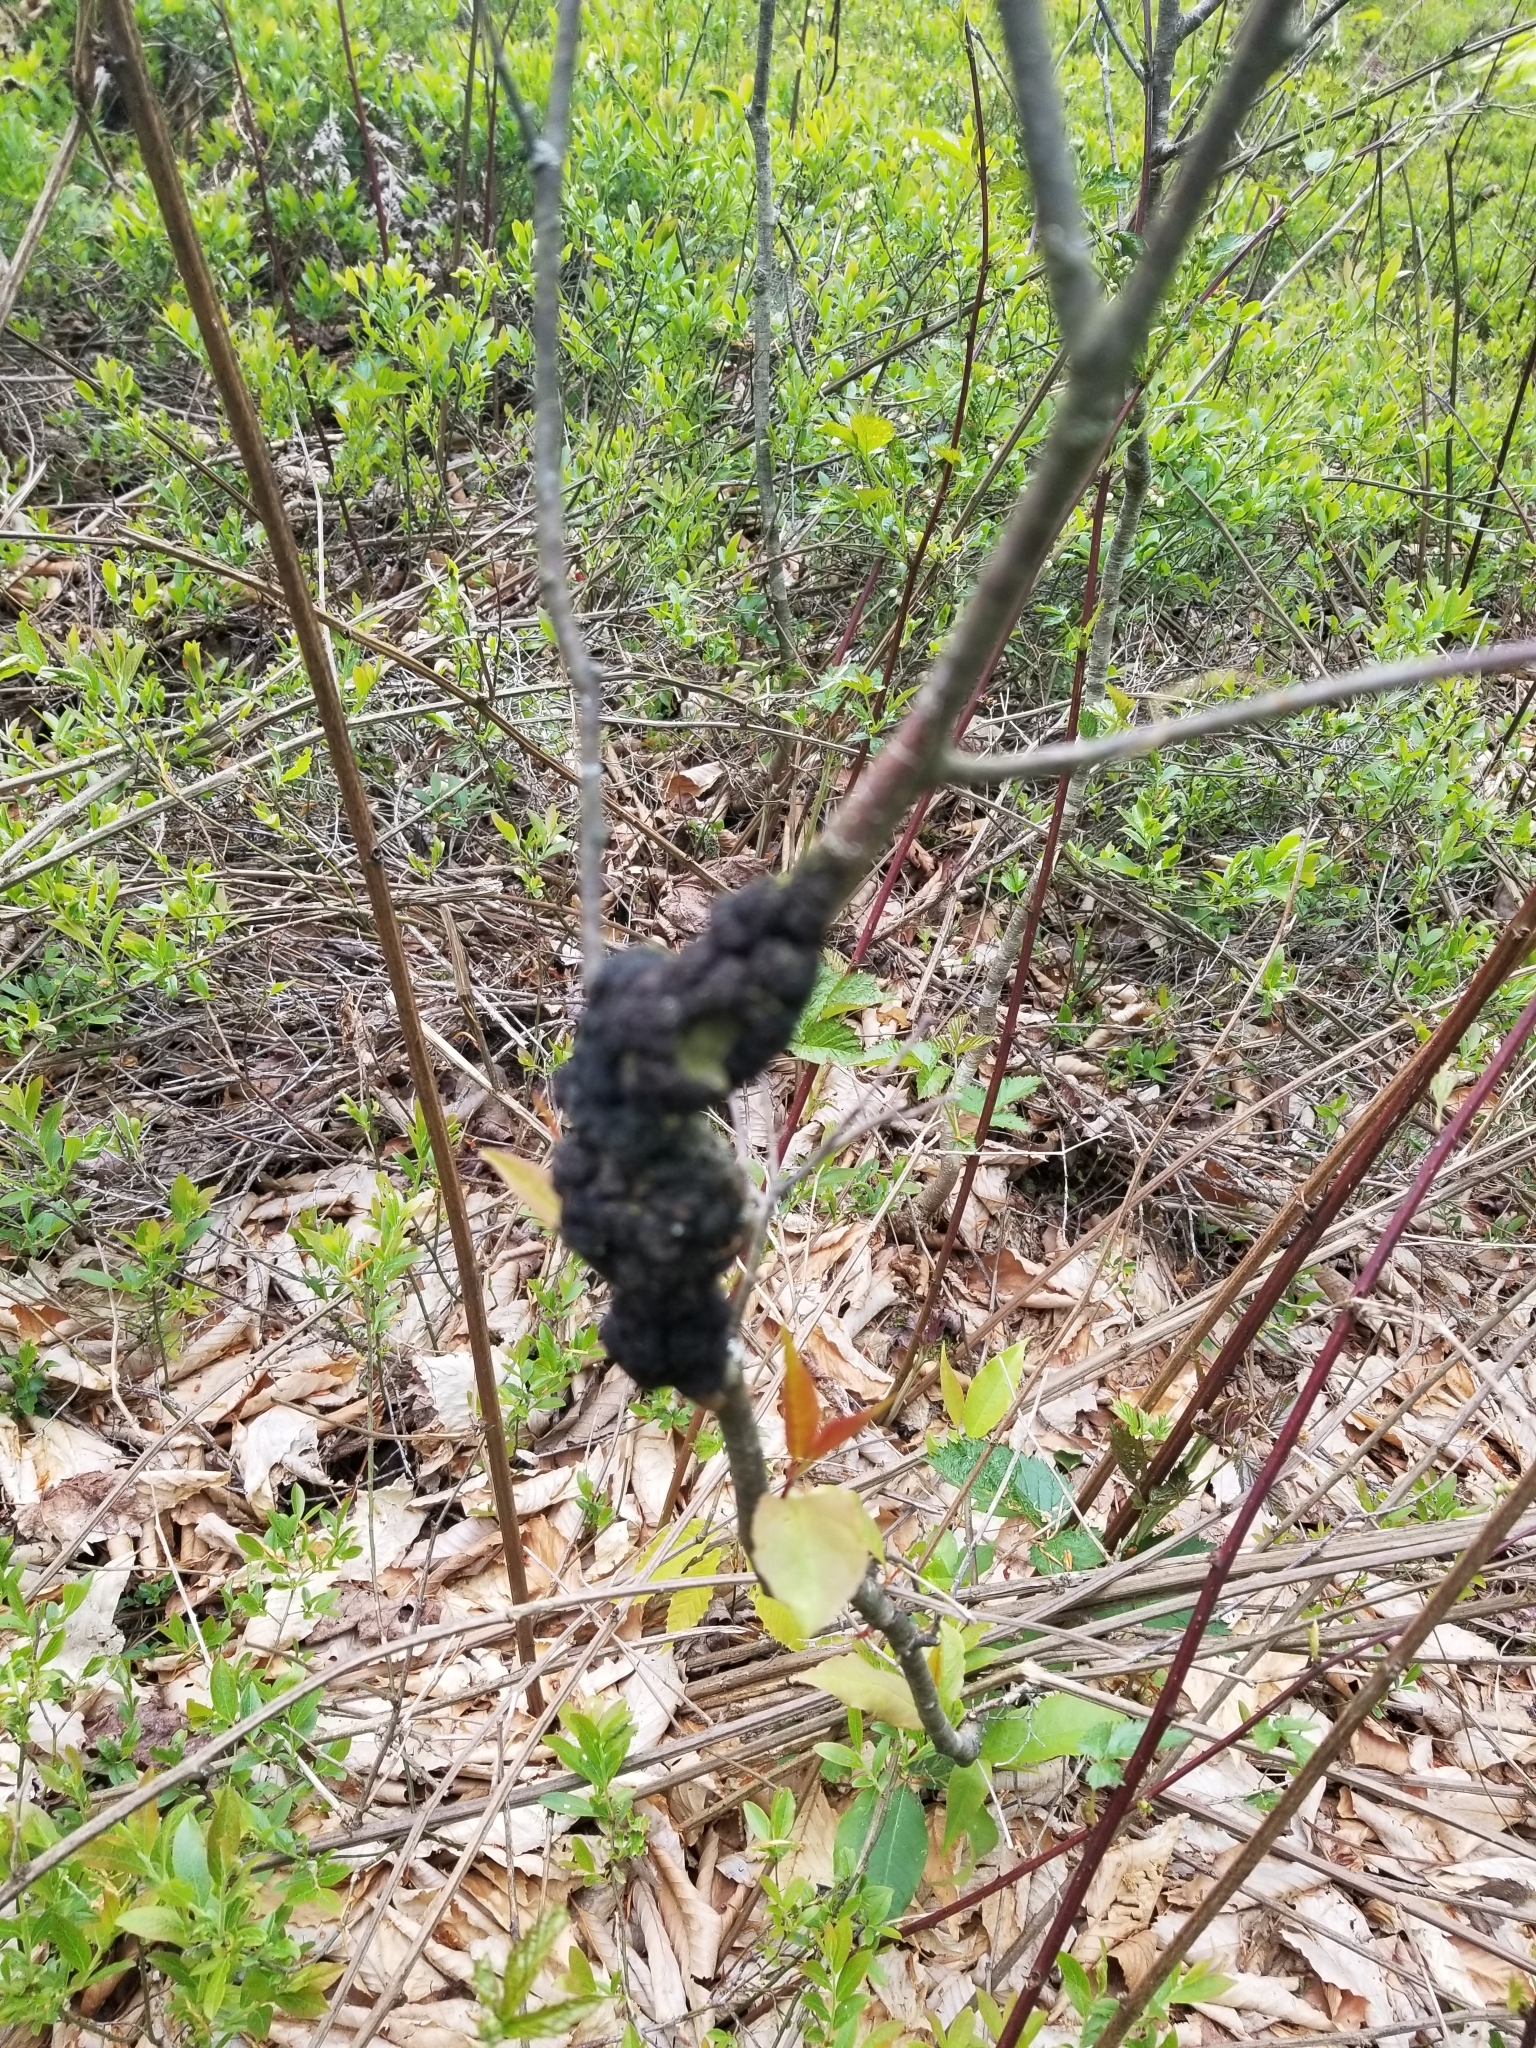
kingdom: Fungi
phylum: Ascomycota
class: Dothideomycetes
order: Venturiales
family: Venturiaceae
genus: Apiosporina
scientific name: Apiosporina morbosa
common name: Black knot
